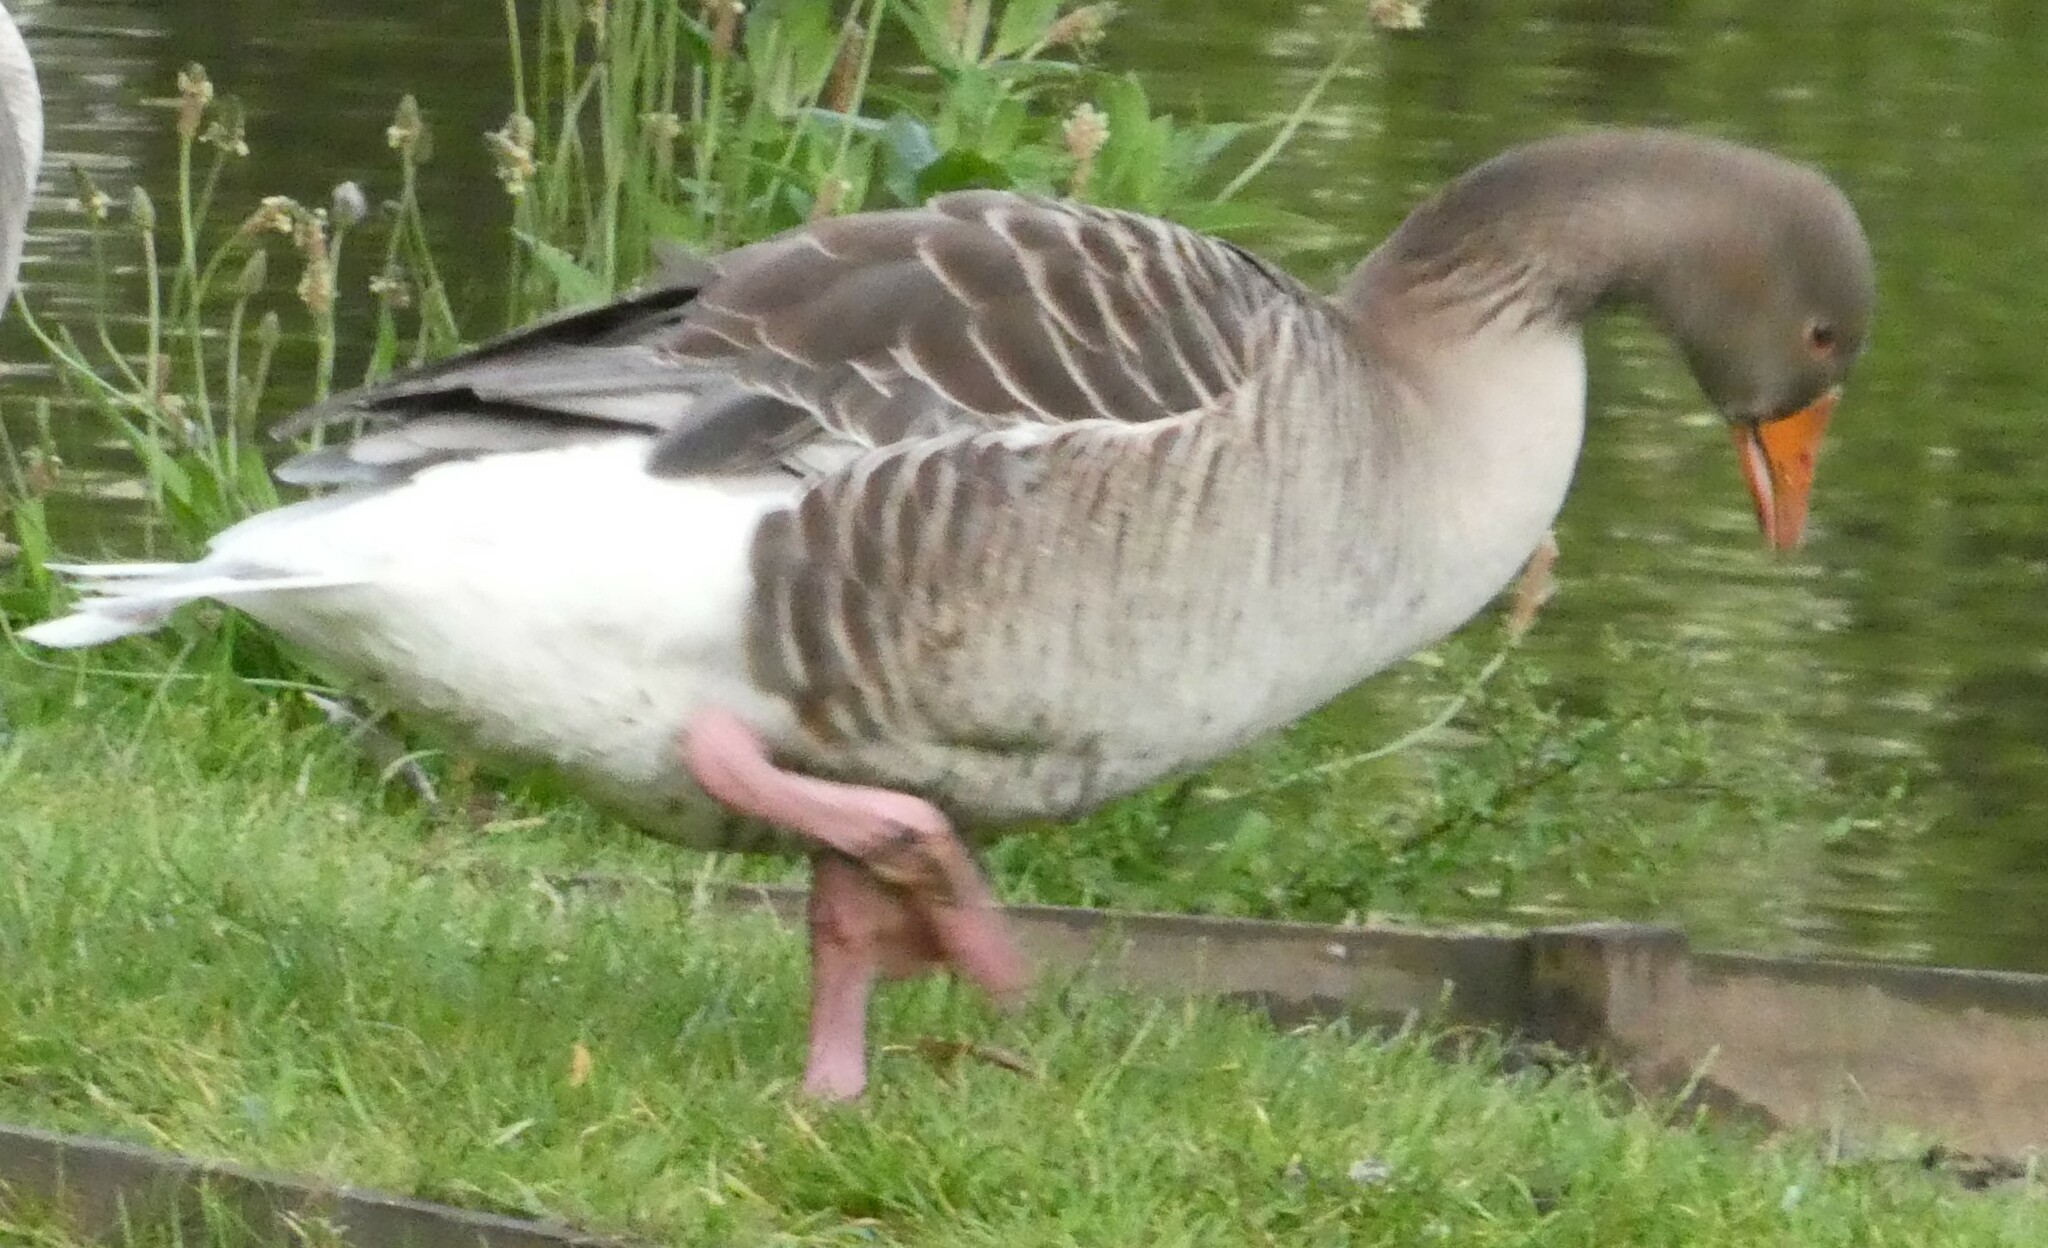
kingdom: Animalia
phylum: Chordata
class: Aves
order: Anseriformes
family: Anatidae
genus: Anser
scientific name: Anser anser
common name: Greylag goose
